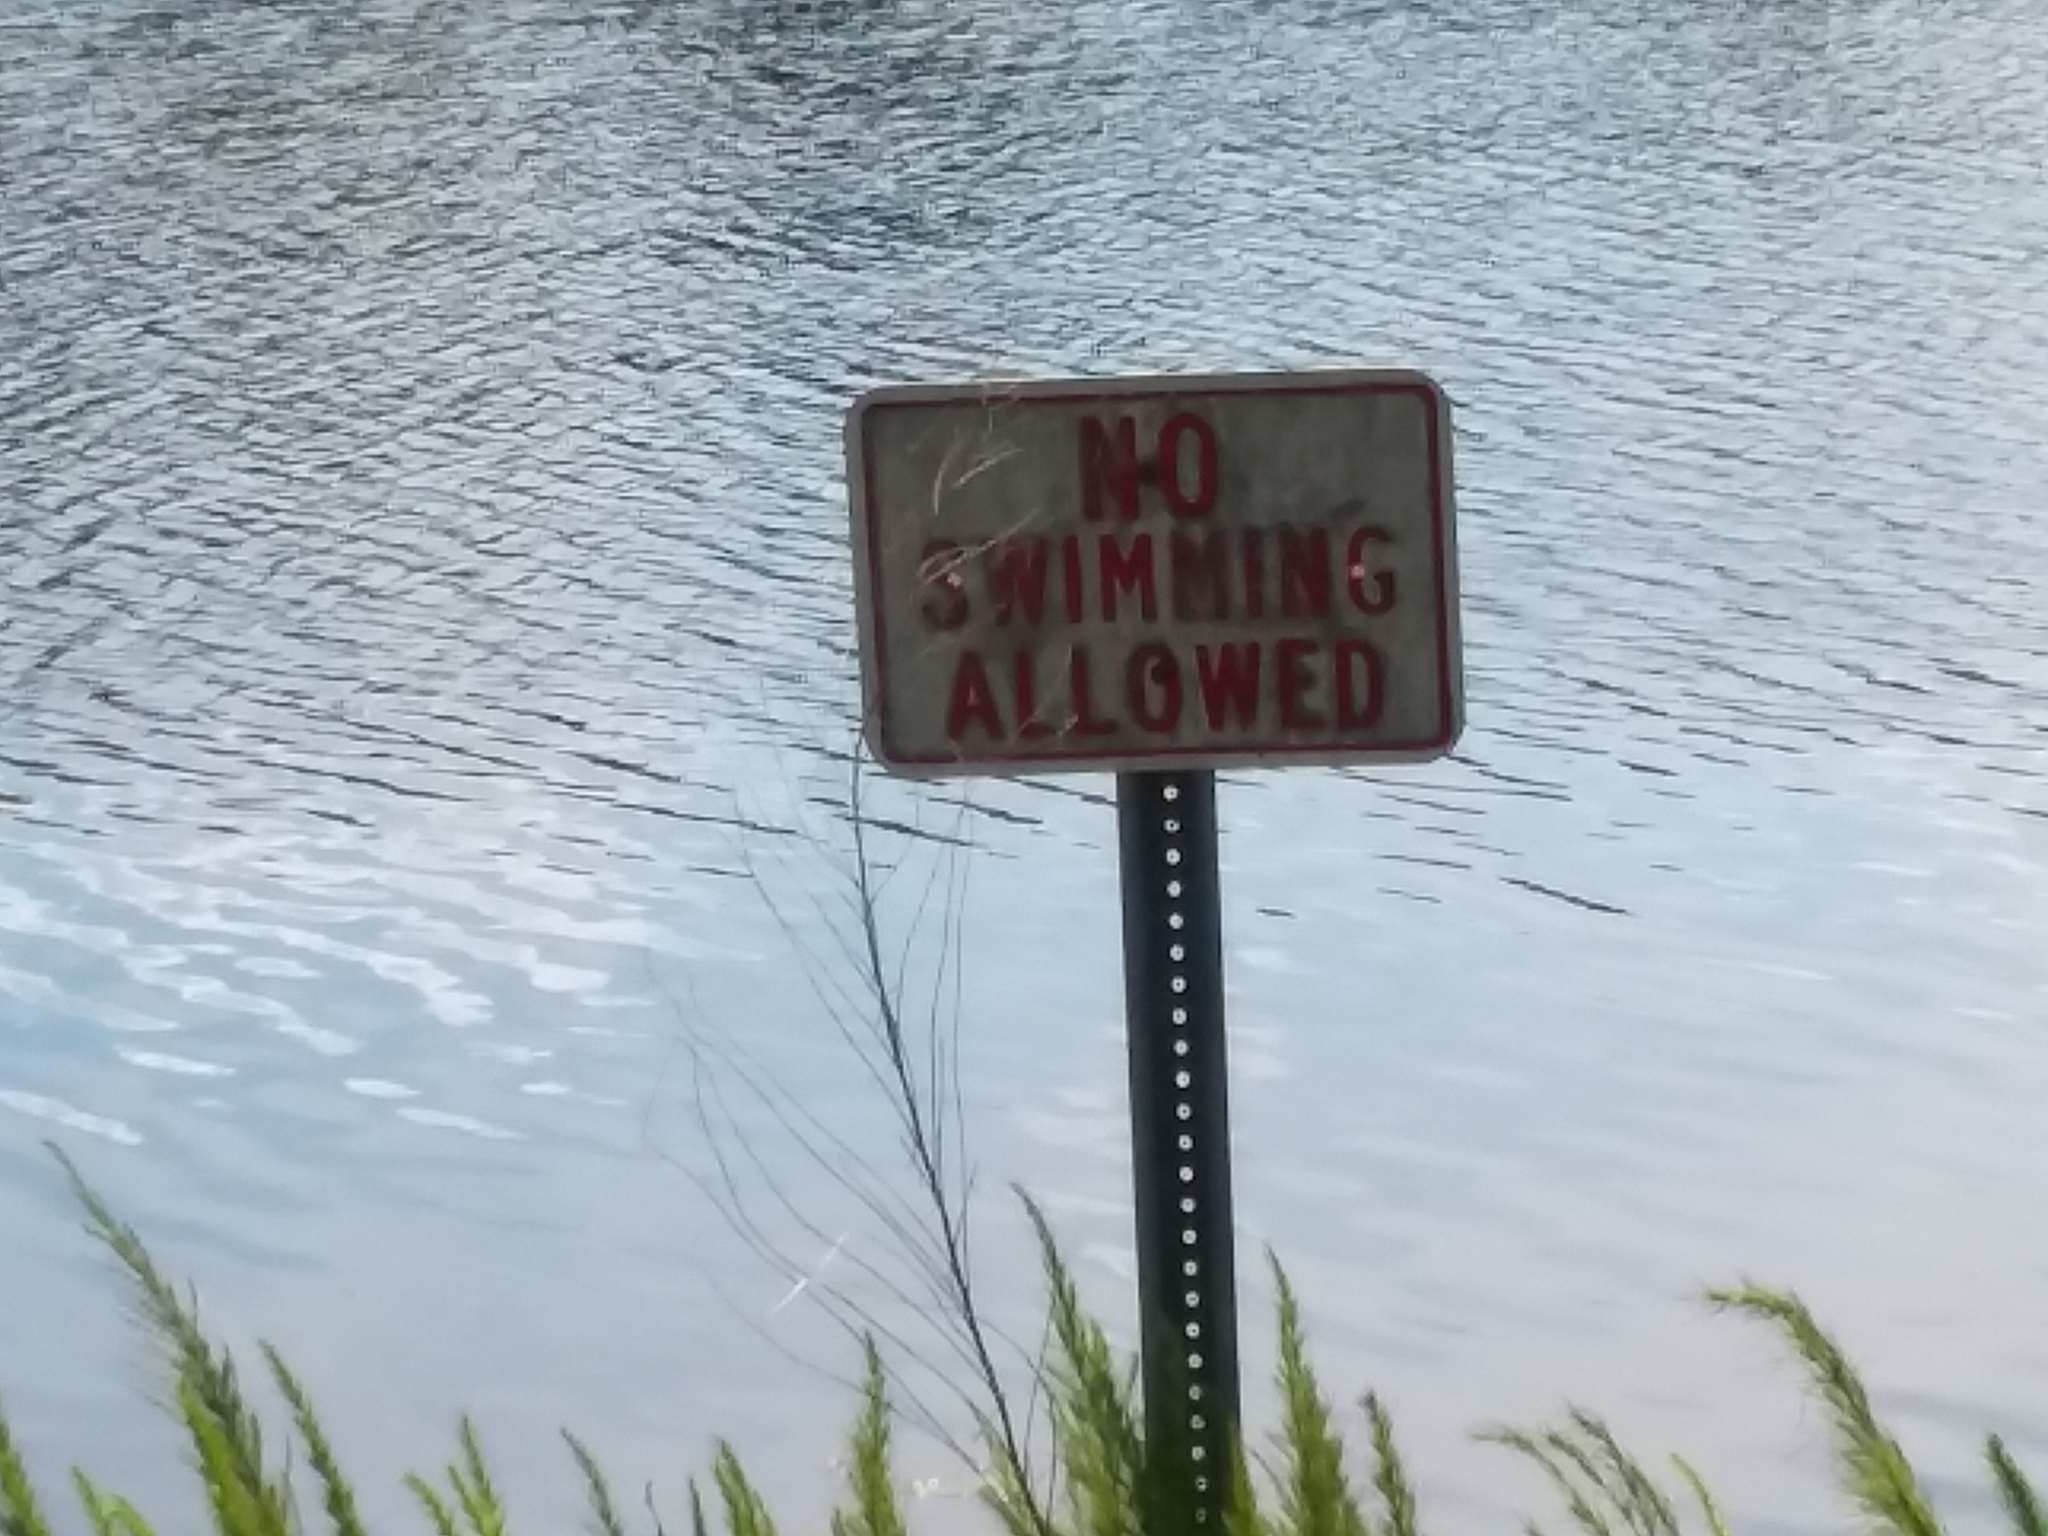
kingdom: Plantae
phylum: Tracheophyta
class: Magnoliopsida
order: Asterales
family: Asteraceae
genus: Eupatorium
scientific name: Eupatorium capillifolium
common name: Dog-fennel
